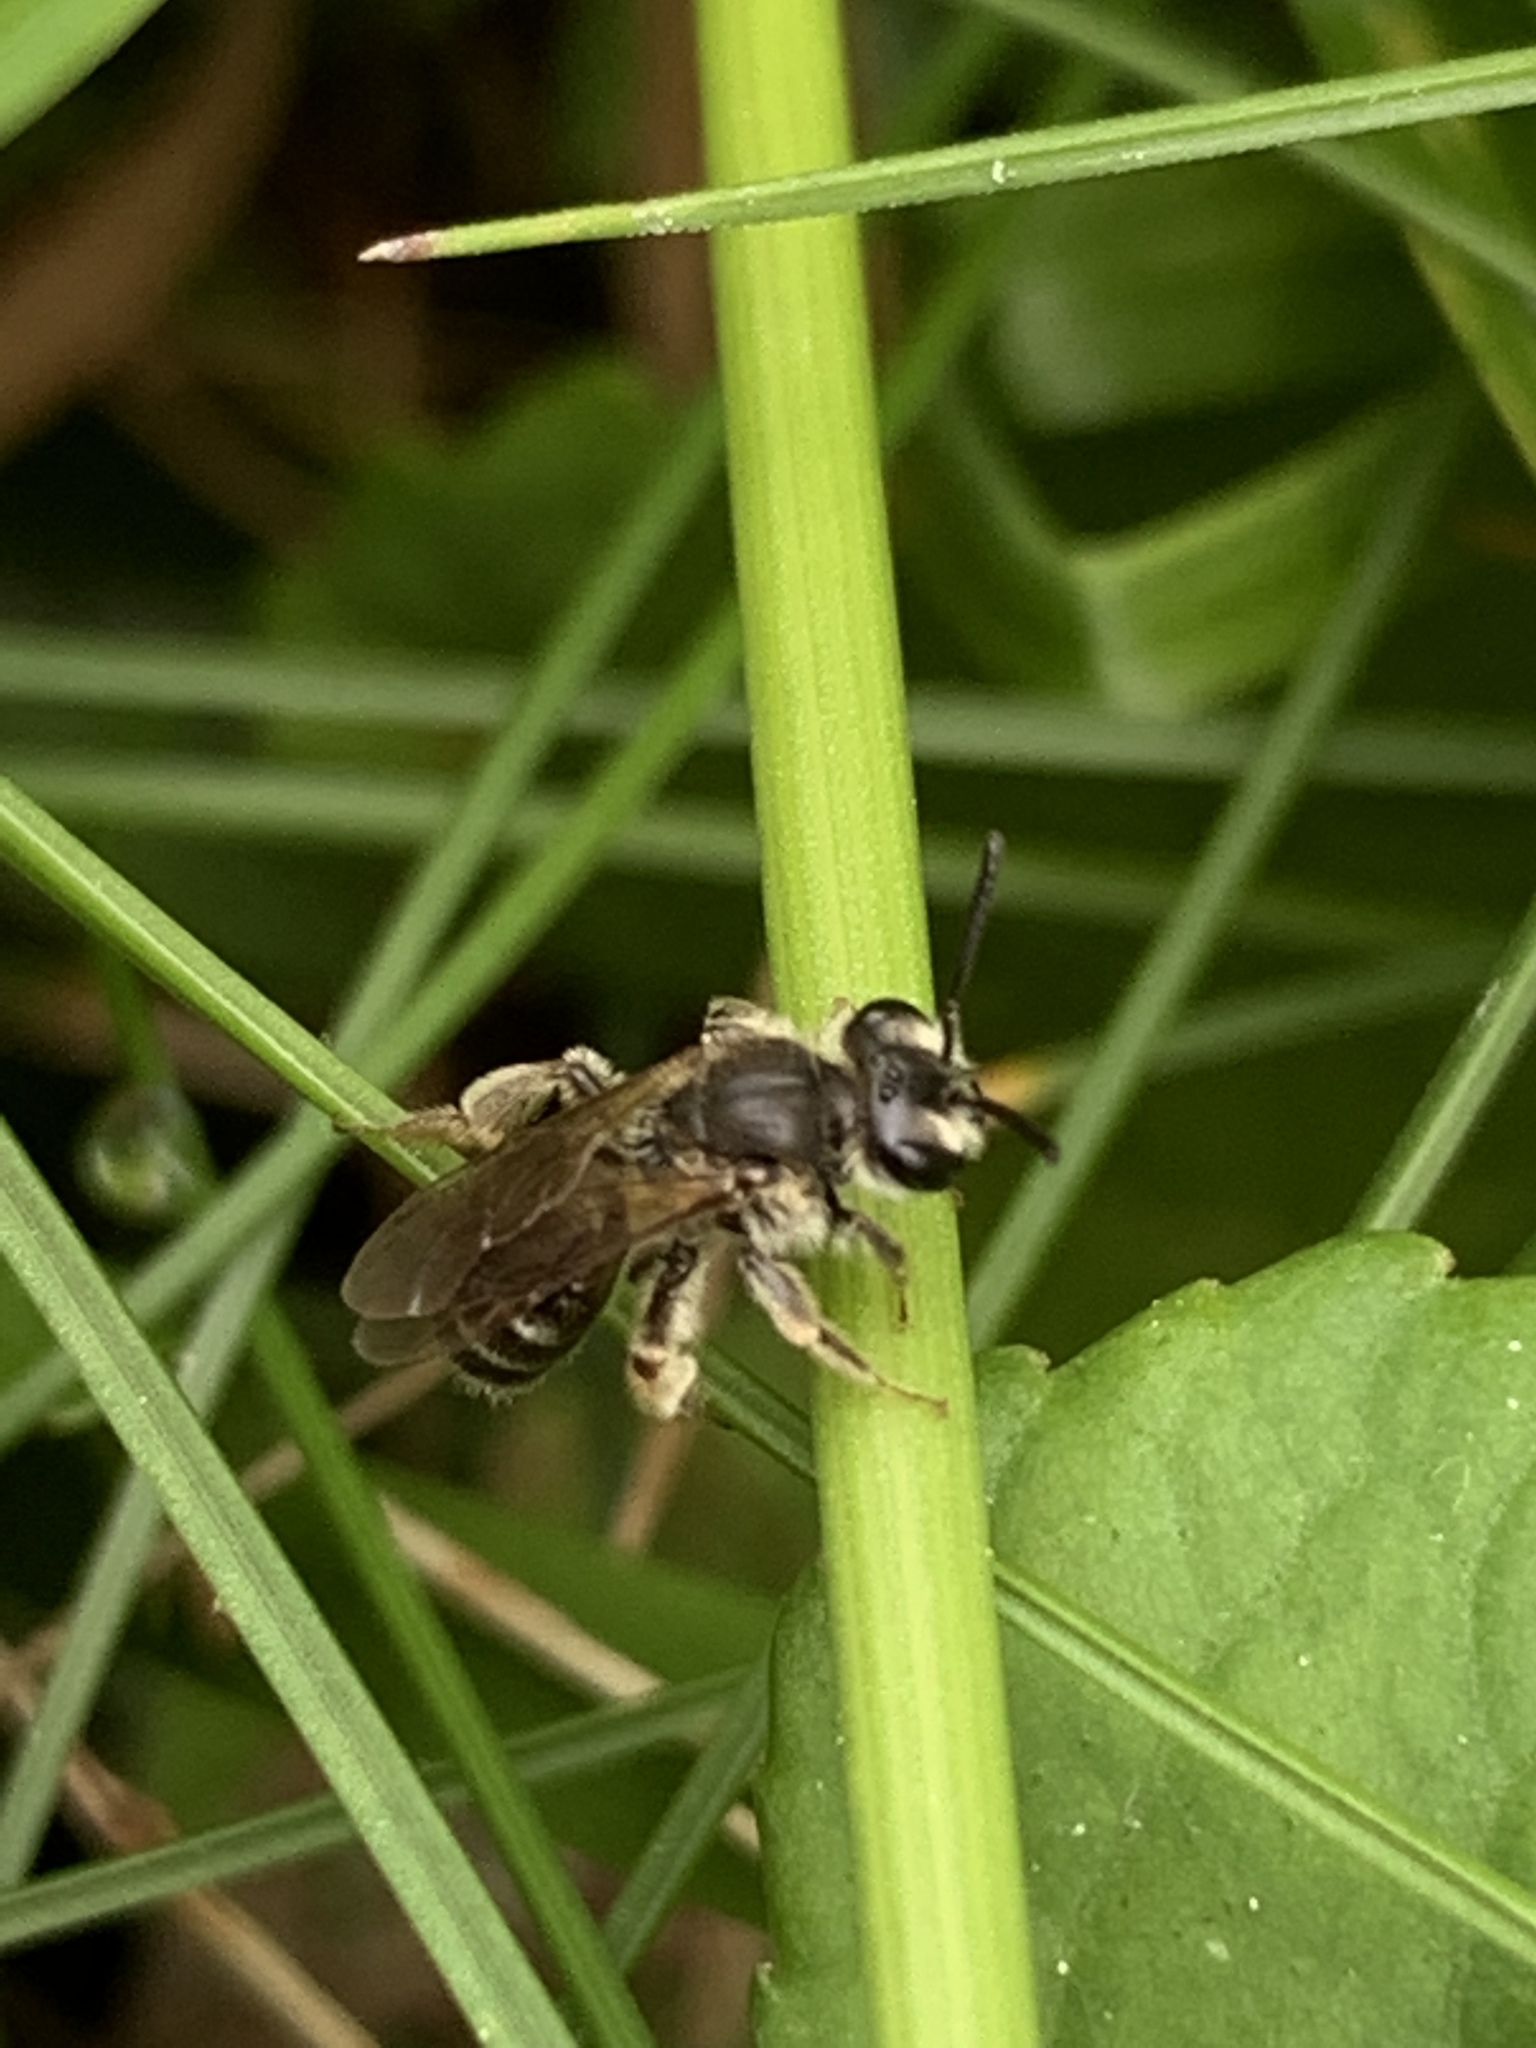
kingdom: Animalia
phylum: Arthropoda
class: Insecta
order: Hymenoptera
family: Andrenidae
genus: Andrena
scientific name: Andrena
